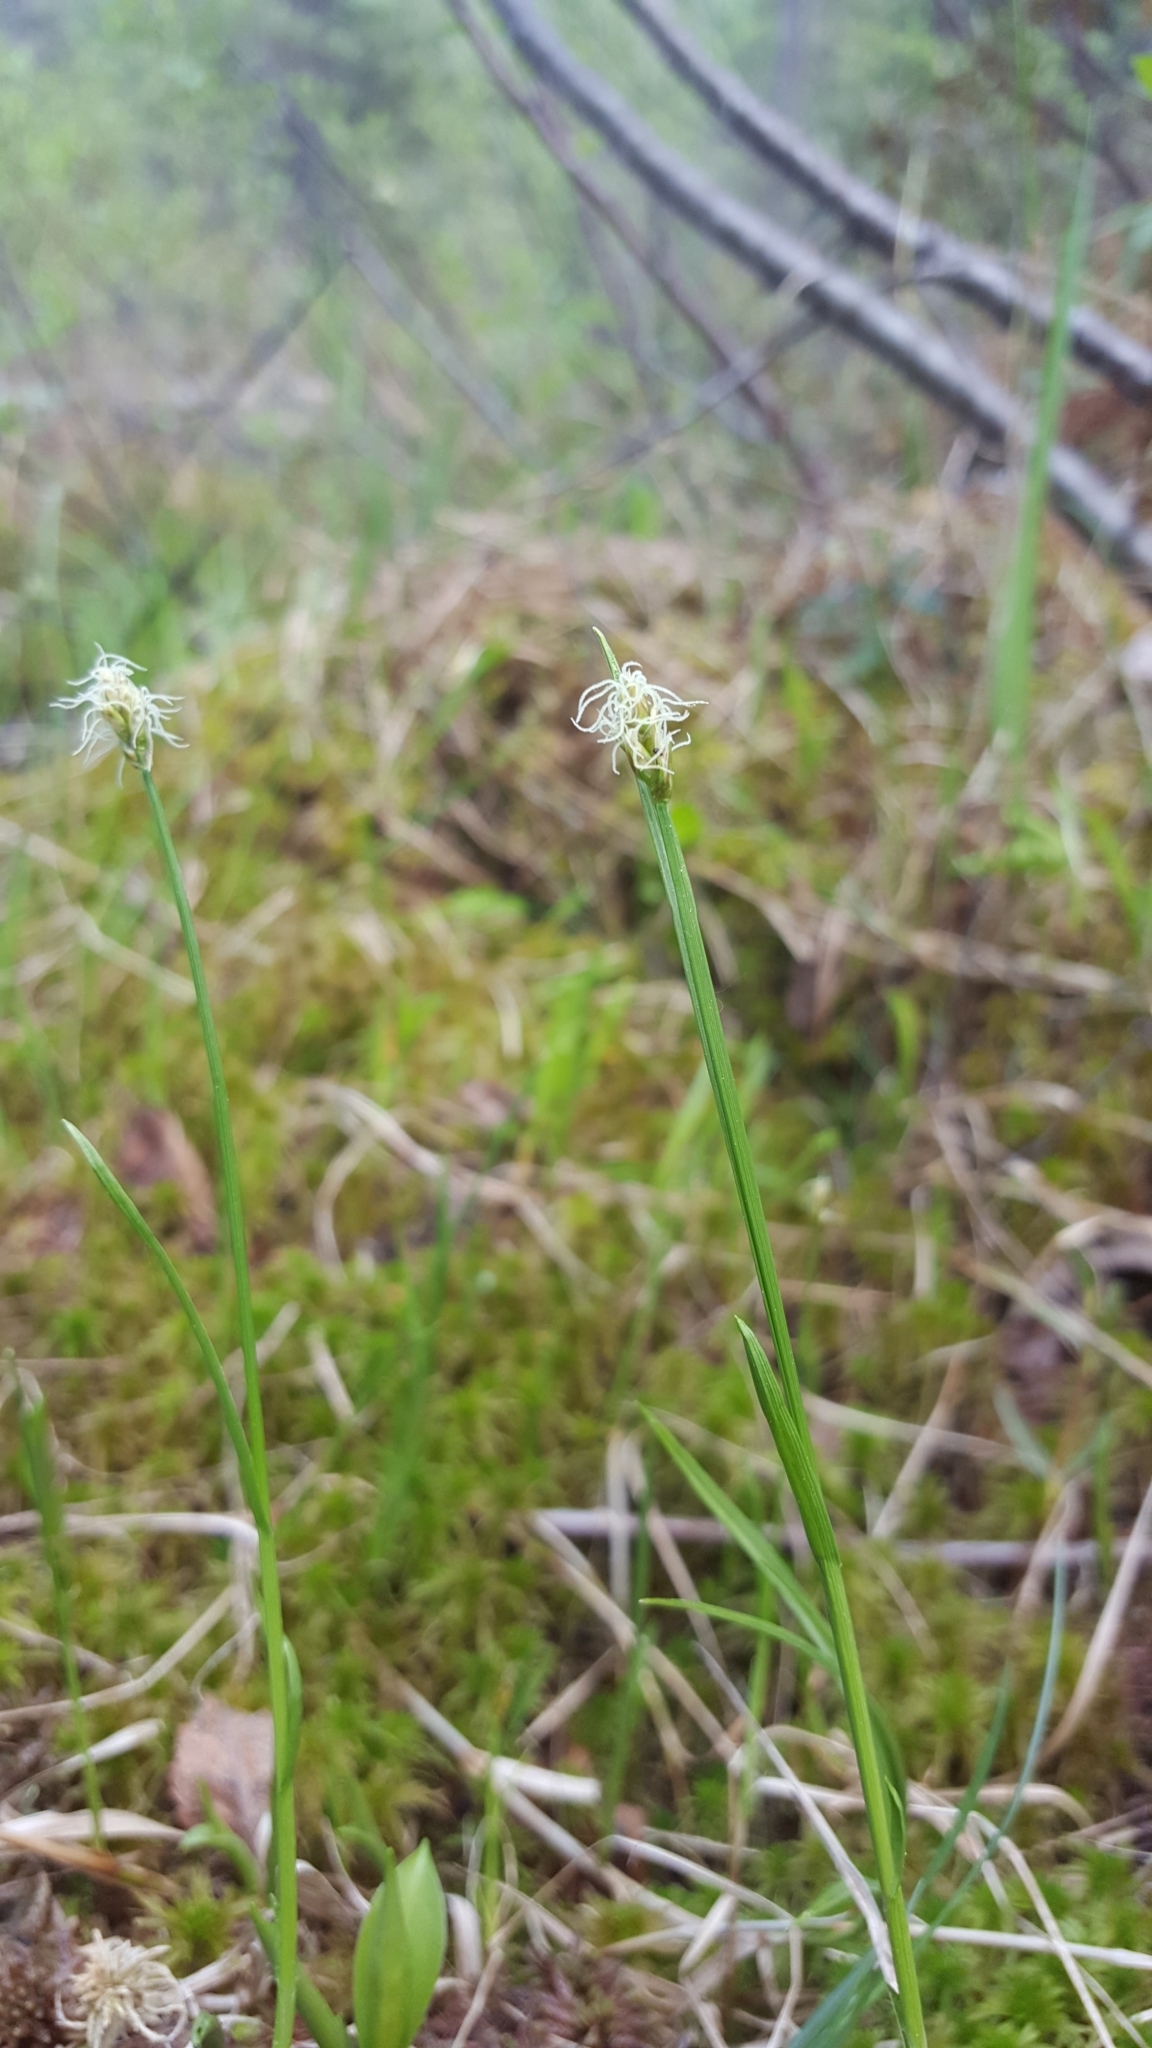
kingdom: Plantae
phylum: Tracheophyta
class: Liliopsida
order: Poales
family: Cyperaceae
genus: Carex
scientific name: Carex chordorrhiza
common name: String sedge
